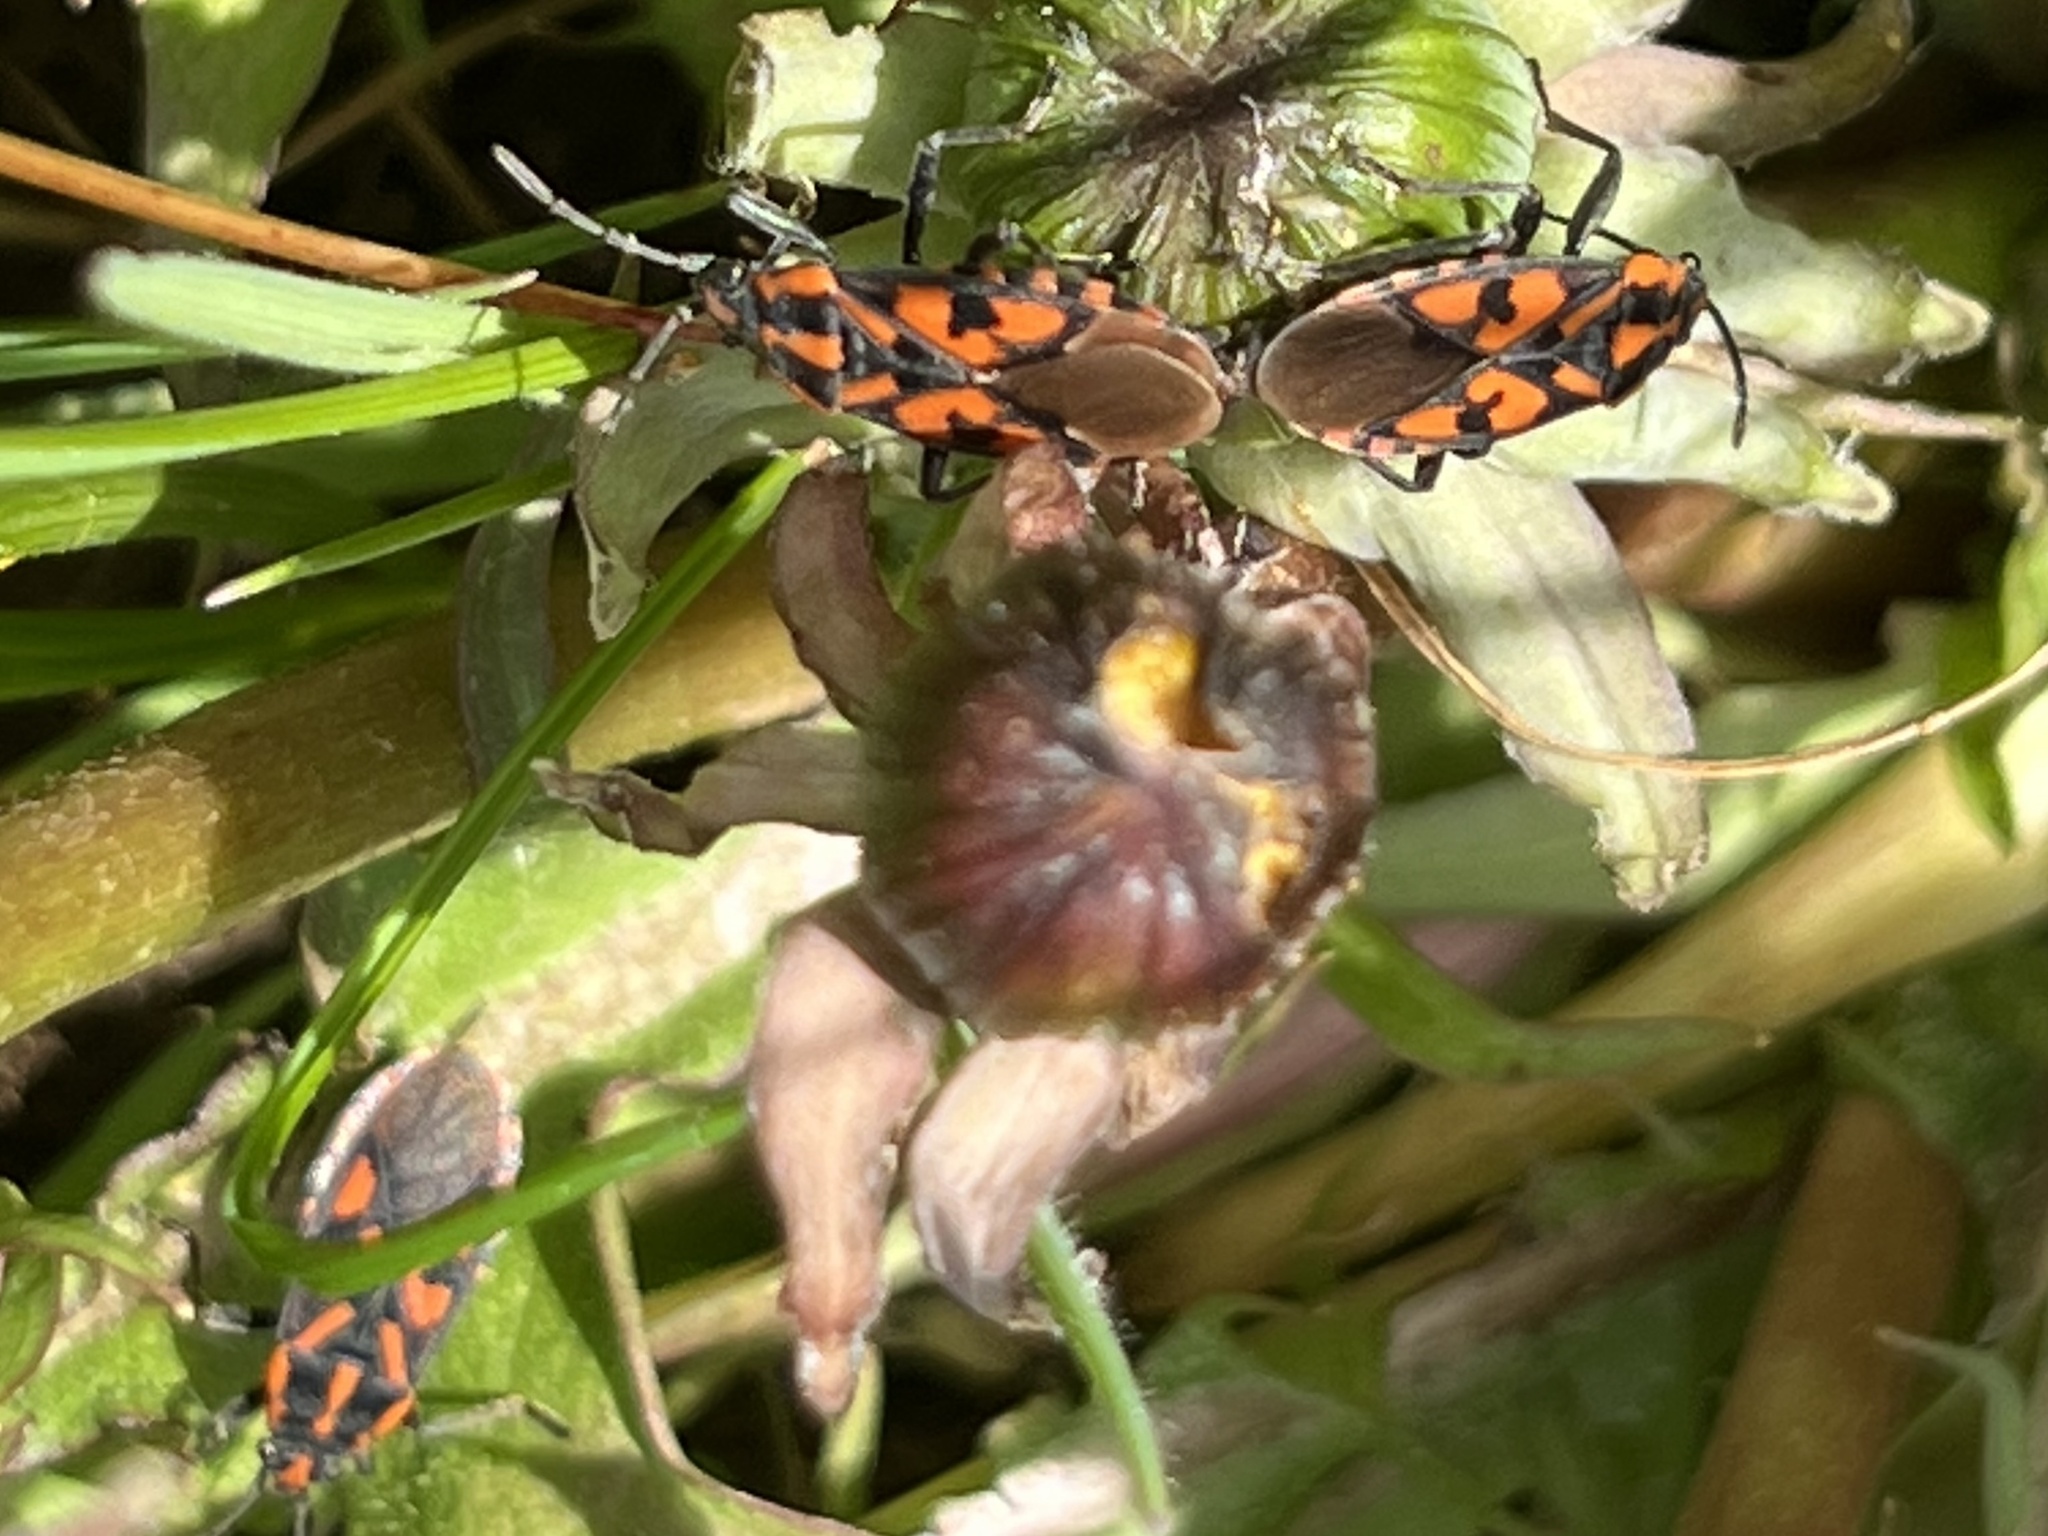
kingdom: Animalia
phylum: Arthropoda
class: Insecta
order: Hemiptera
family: Lygaeidae
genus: Spilostethus
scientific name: Spilostethus saxatilis
